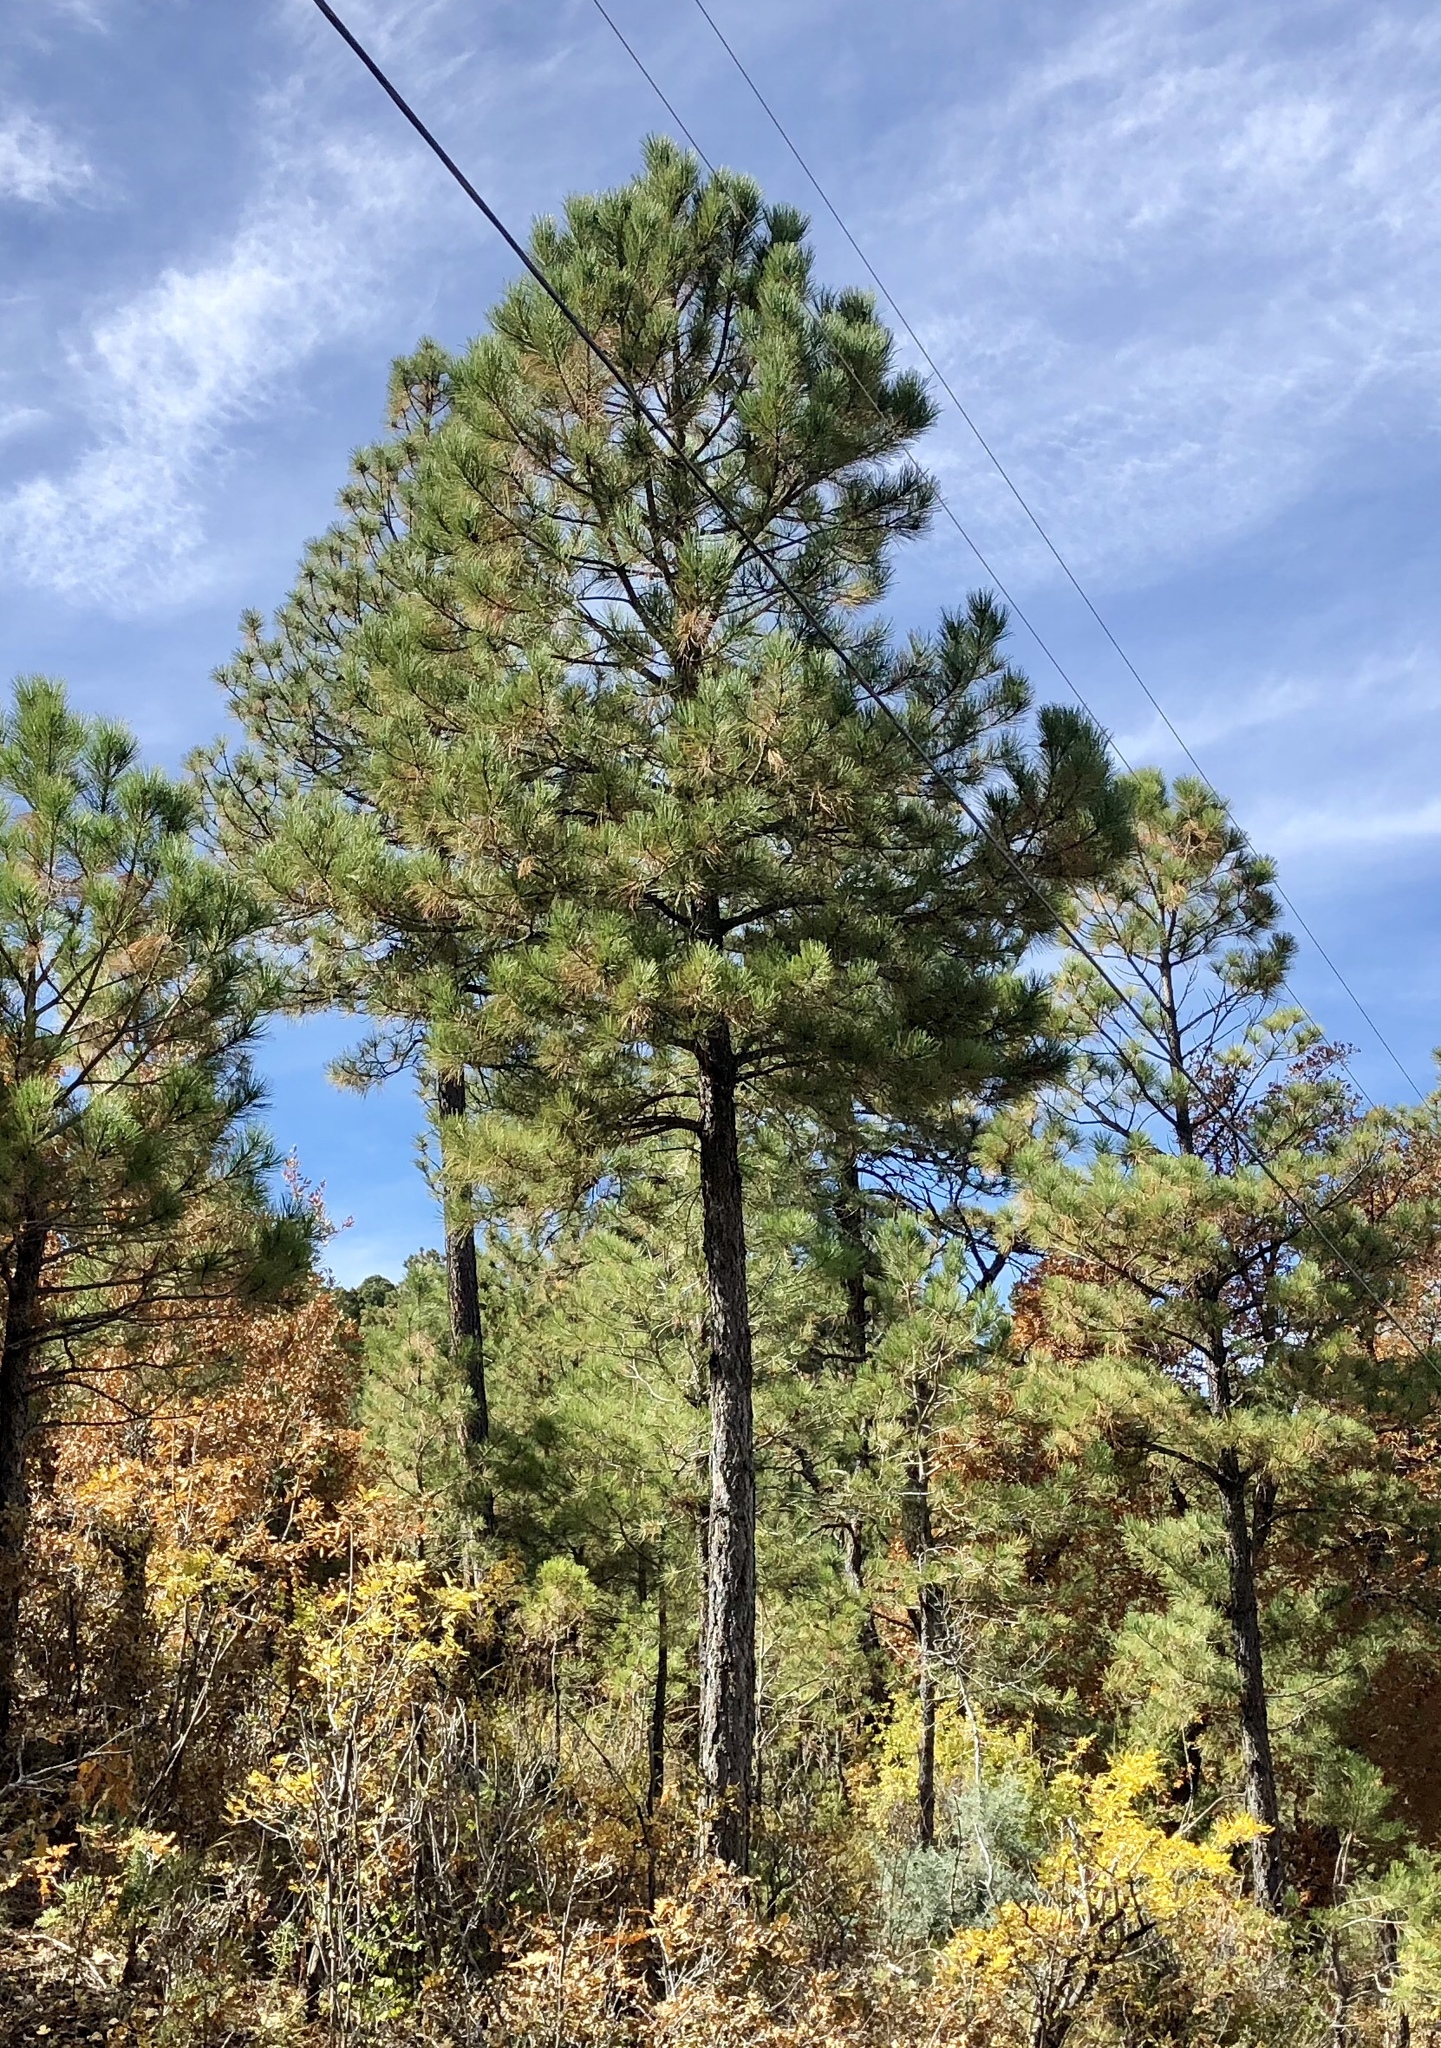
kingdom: Plantae
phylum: Tracheophyta
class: Pinopsida
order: Pinales
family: Pinaceae
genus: Pinus
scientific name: Pinus ponderosa
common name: Western yellow-pine
